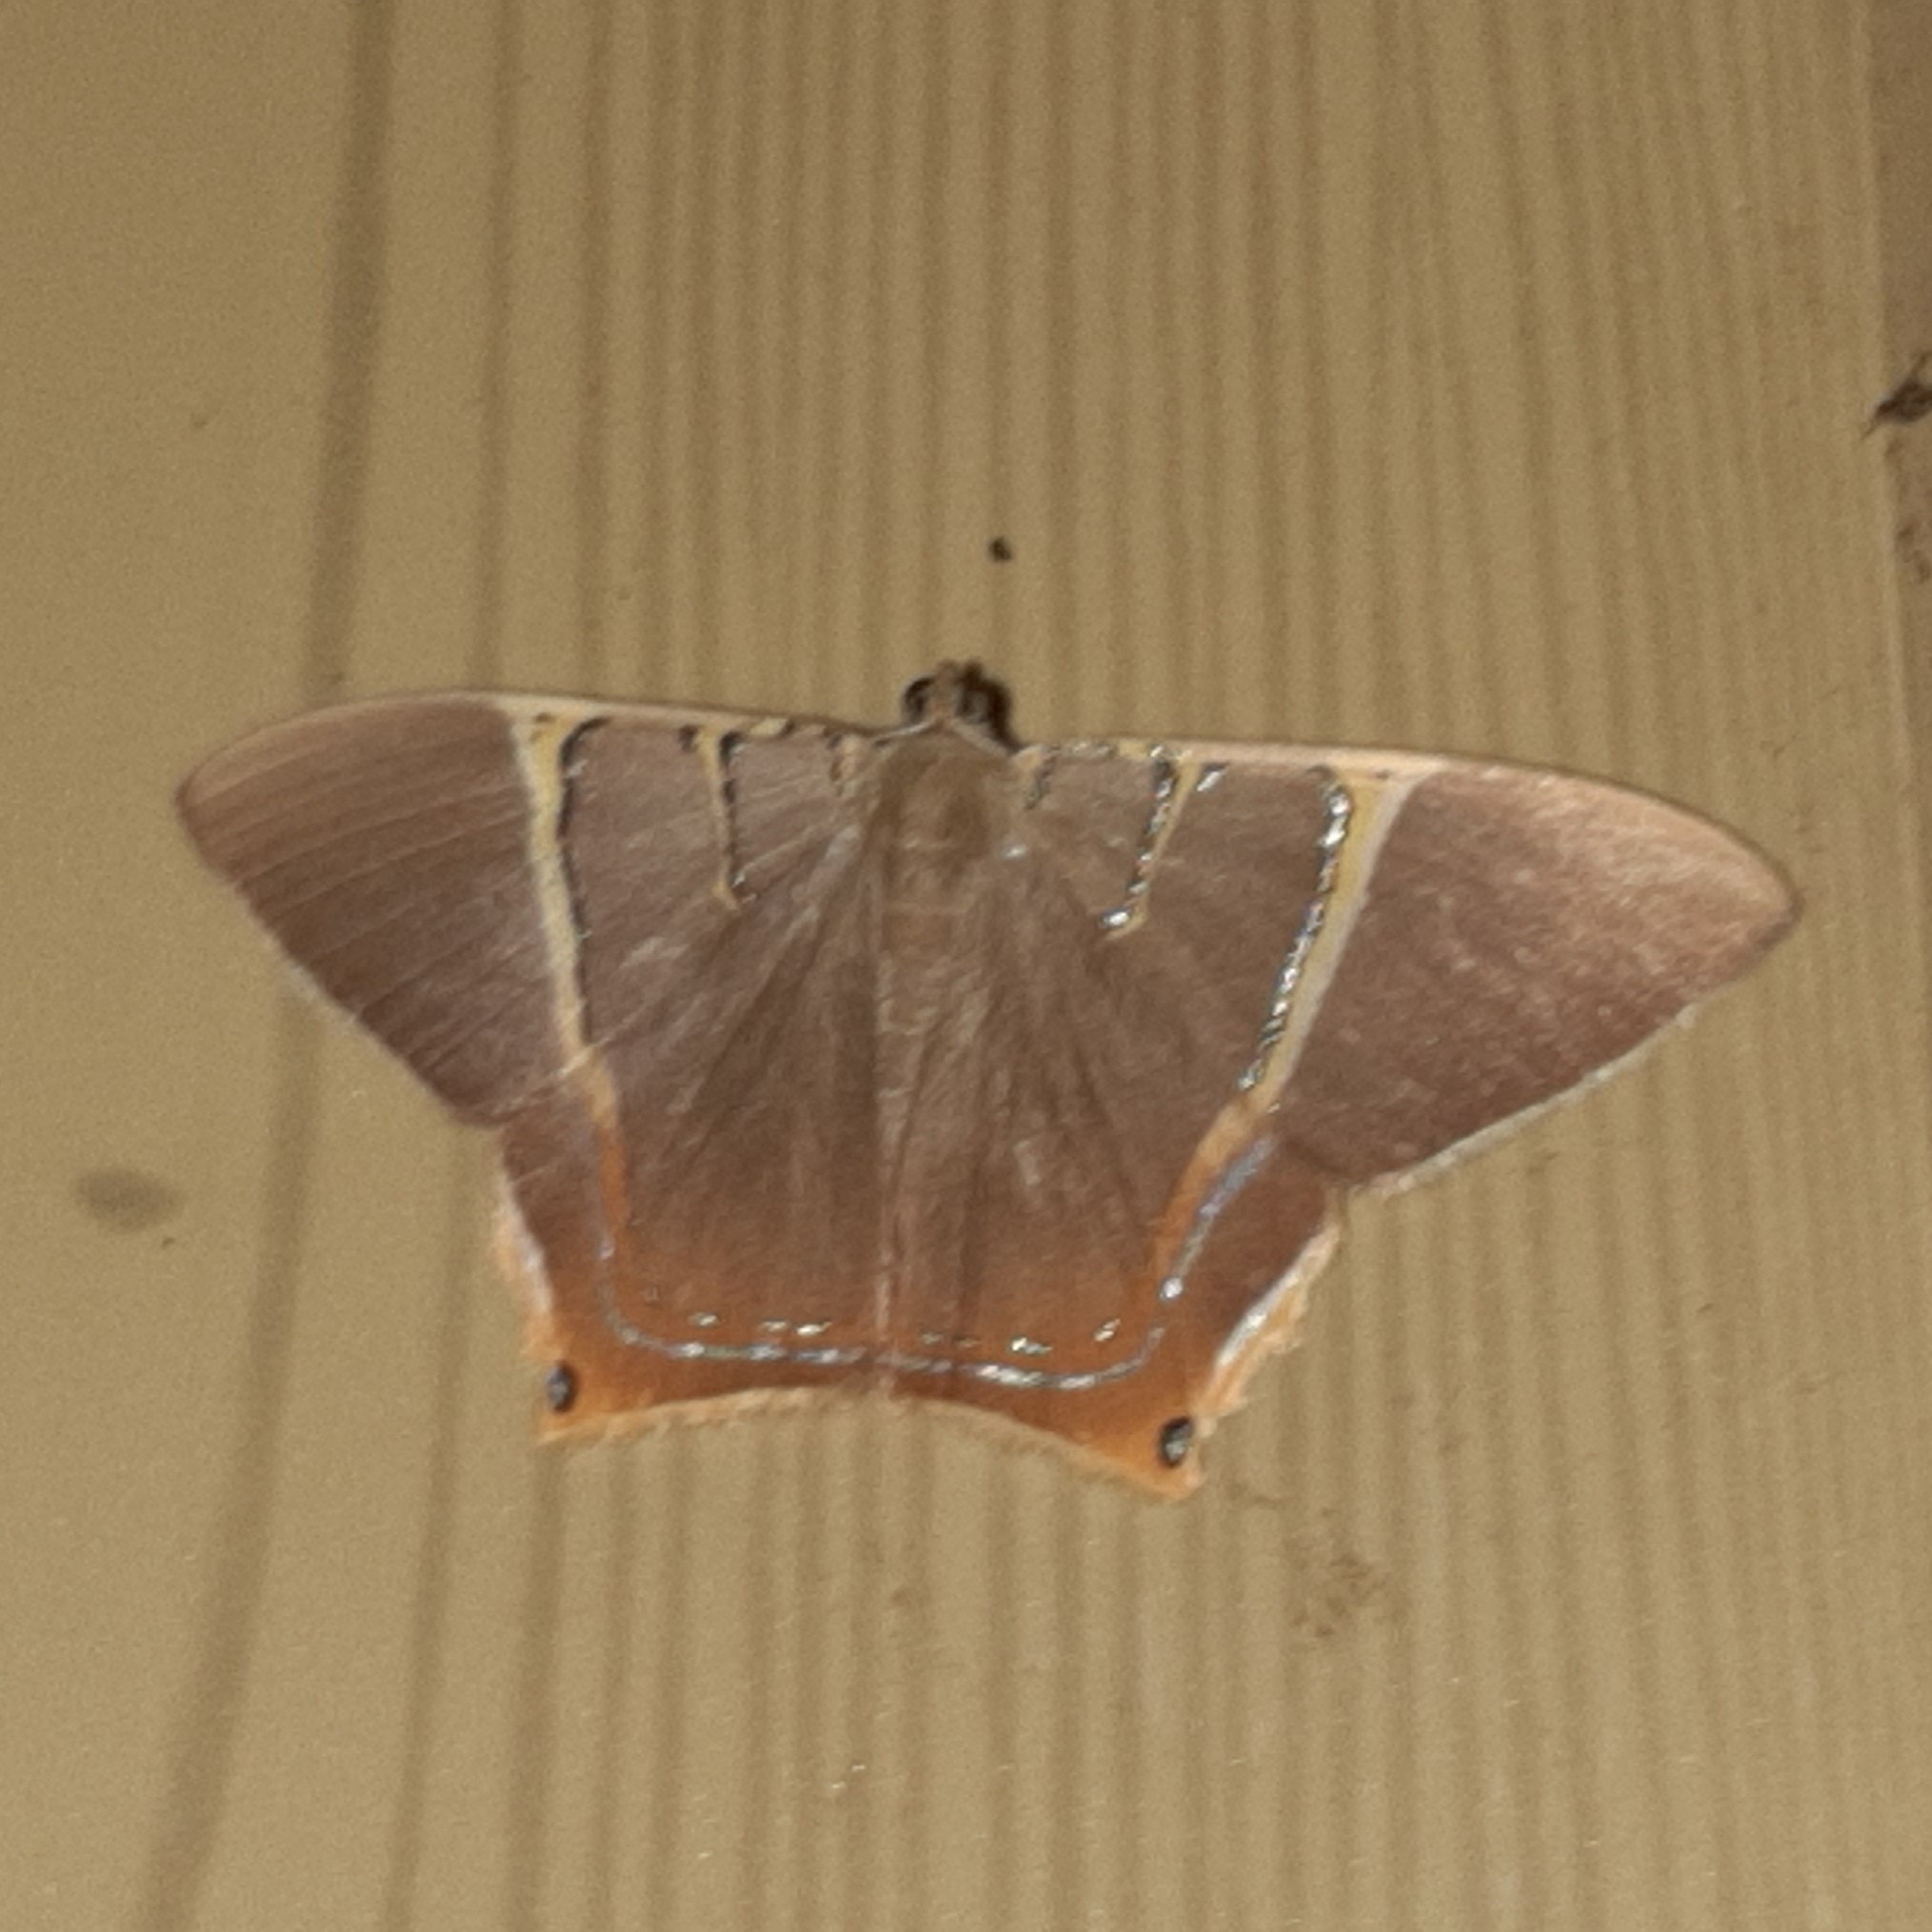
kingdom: Animalia
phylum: Arthropoda
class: Insecta
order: Lepidoptera
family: Geometridae
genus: Phrygionis
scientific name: Phrygionis polita
